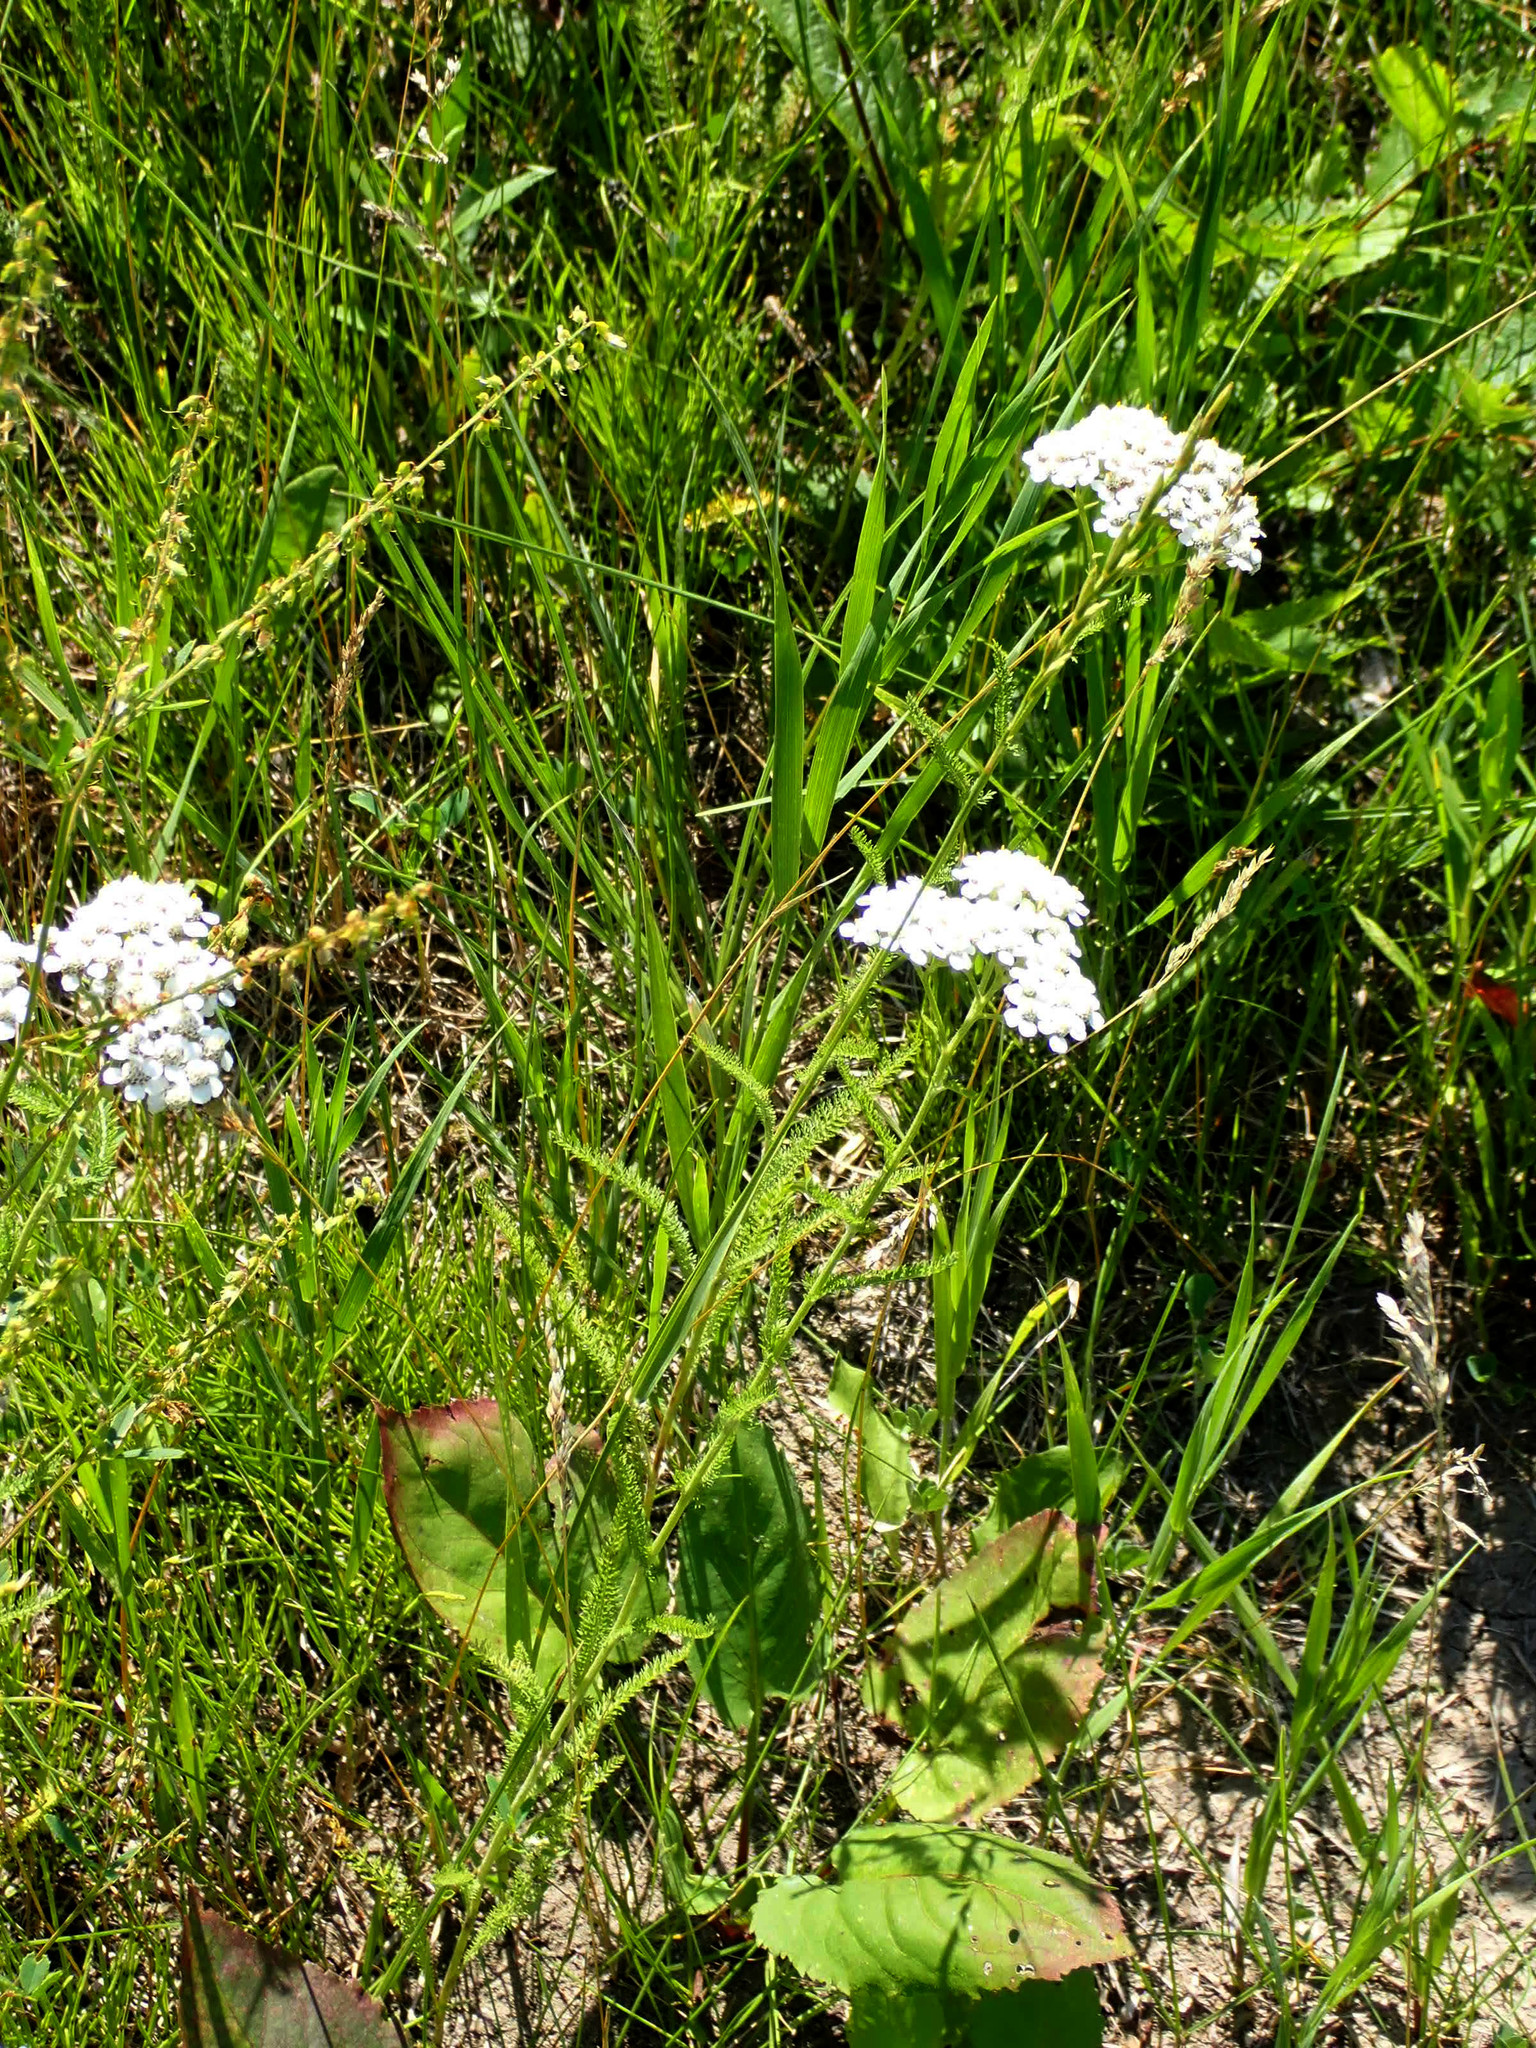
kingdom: Plantae
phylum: Tracheophyta
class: Magnoliopsida
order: Asterales
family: Asteraceae
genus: Achillea
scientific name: Achillea millefolium
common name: Yarrow
